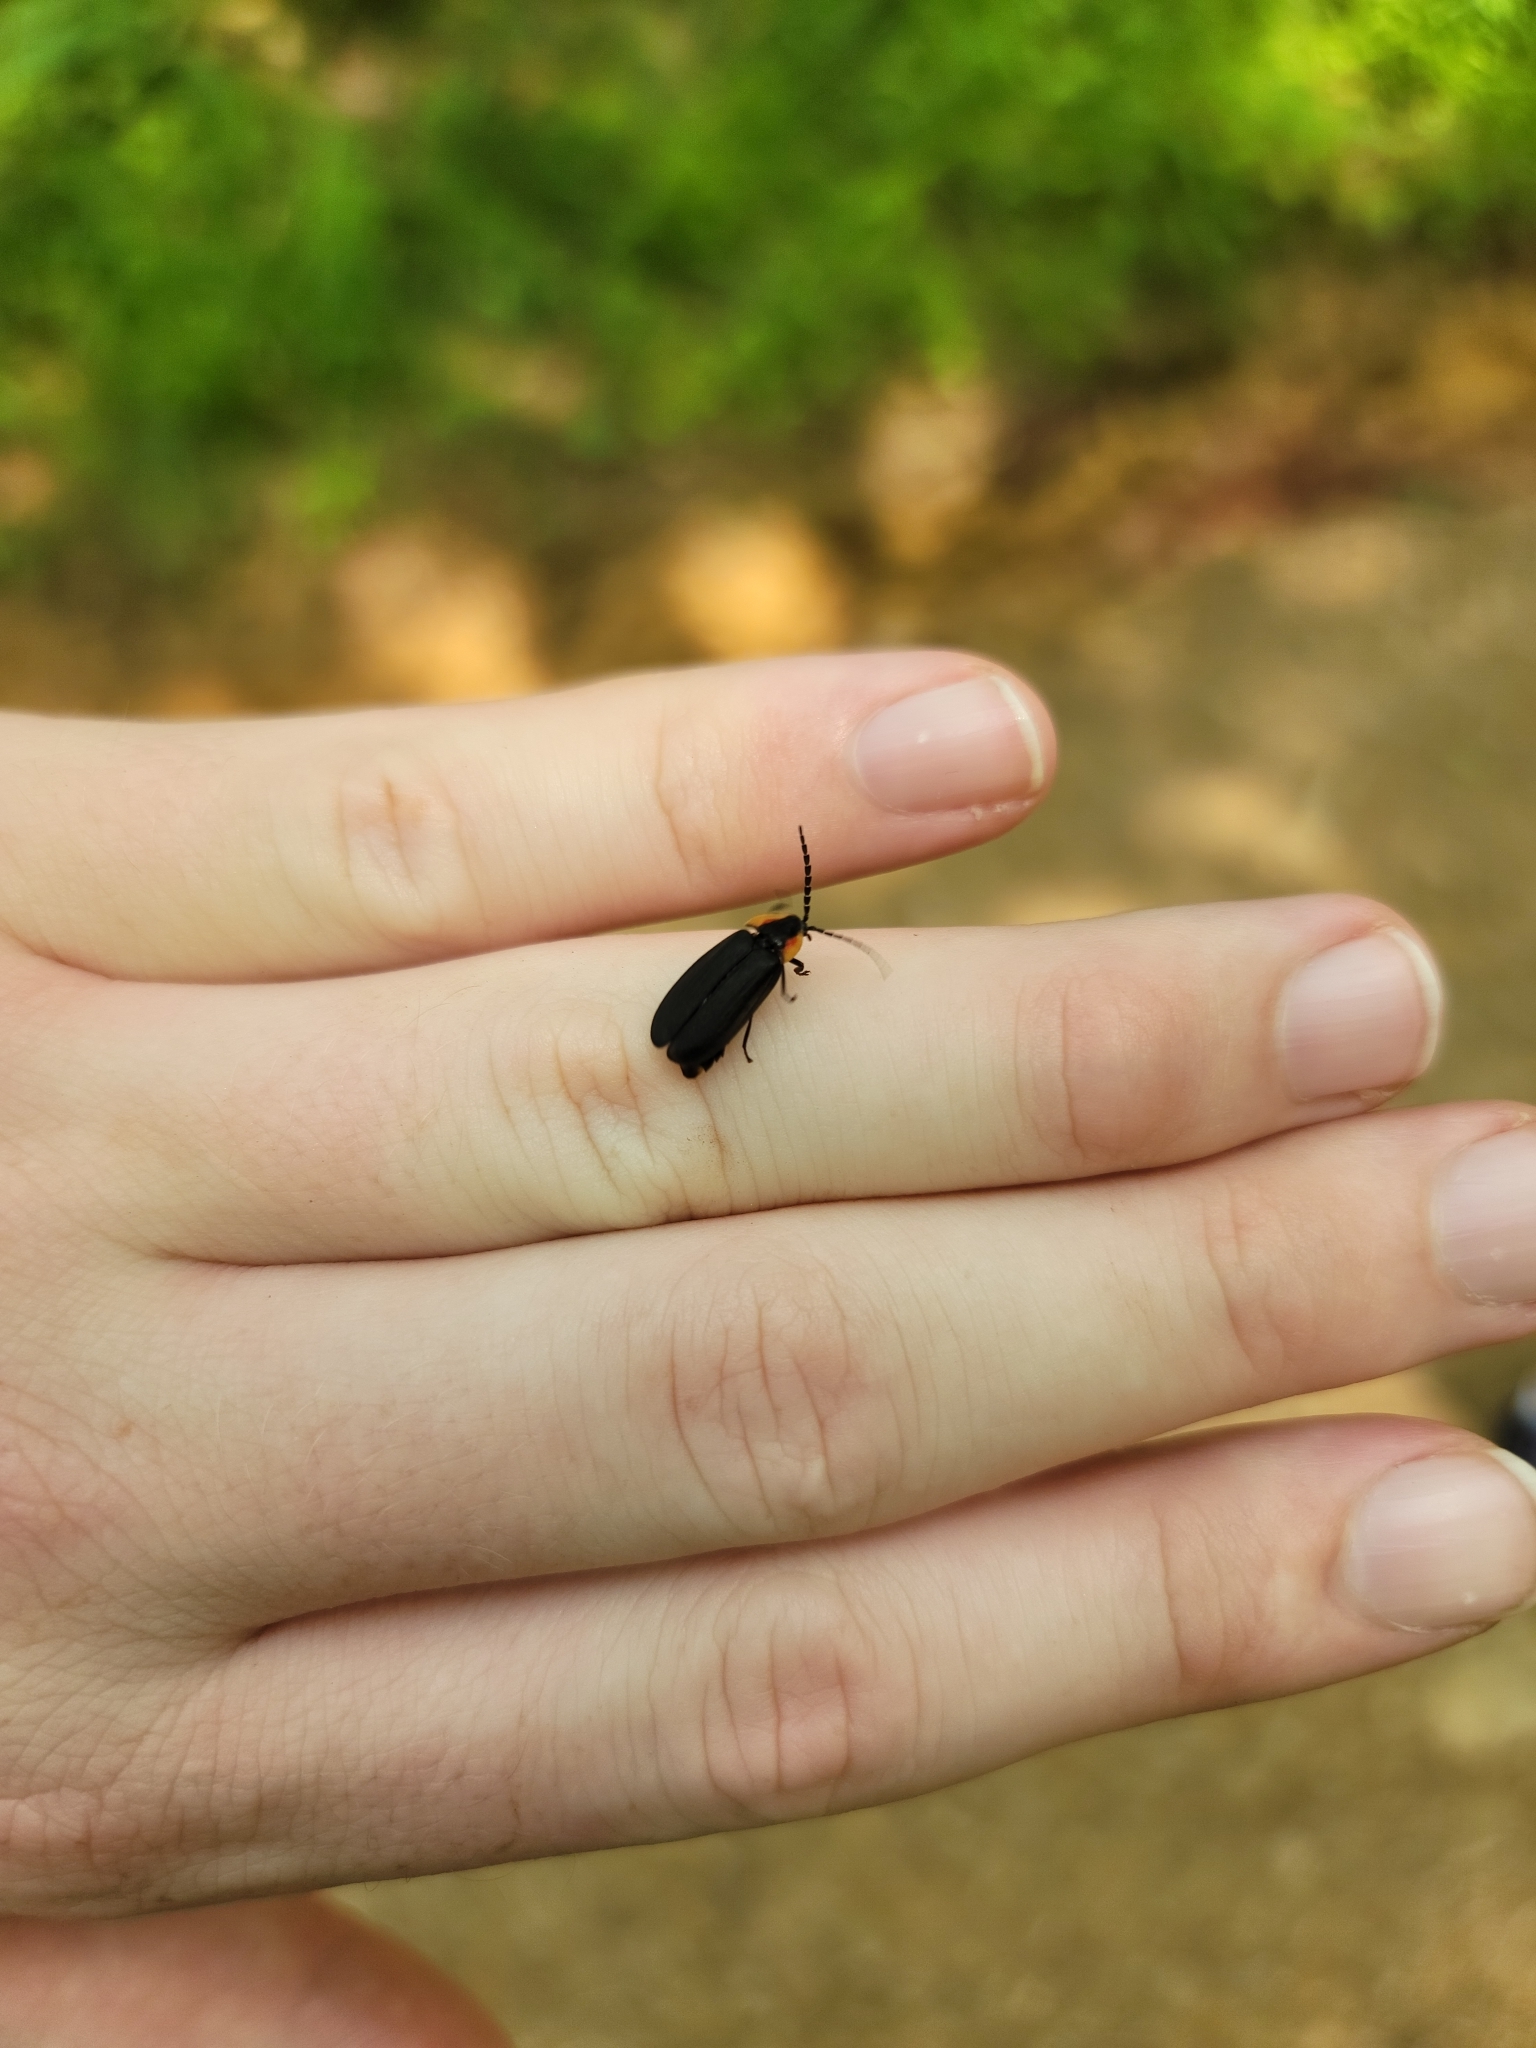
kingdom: Animalia
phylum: Arthropoda
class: Insecta
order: Coleoptera
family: Lampyridae
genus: Lucidota
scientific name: Lucidota atra
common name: Black firefly
